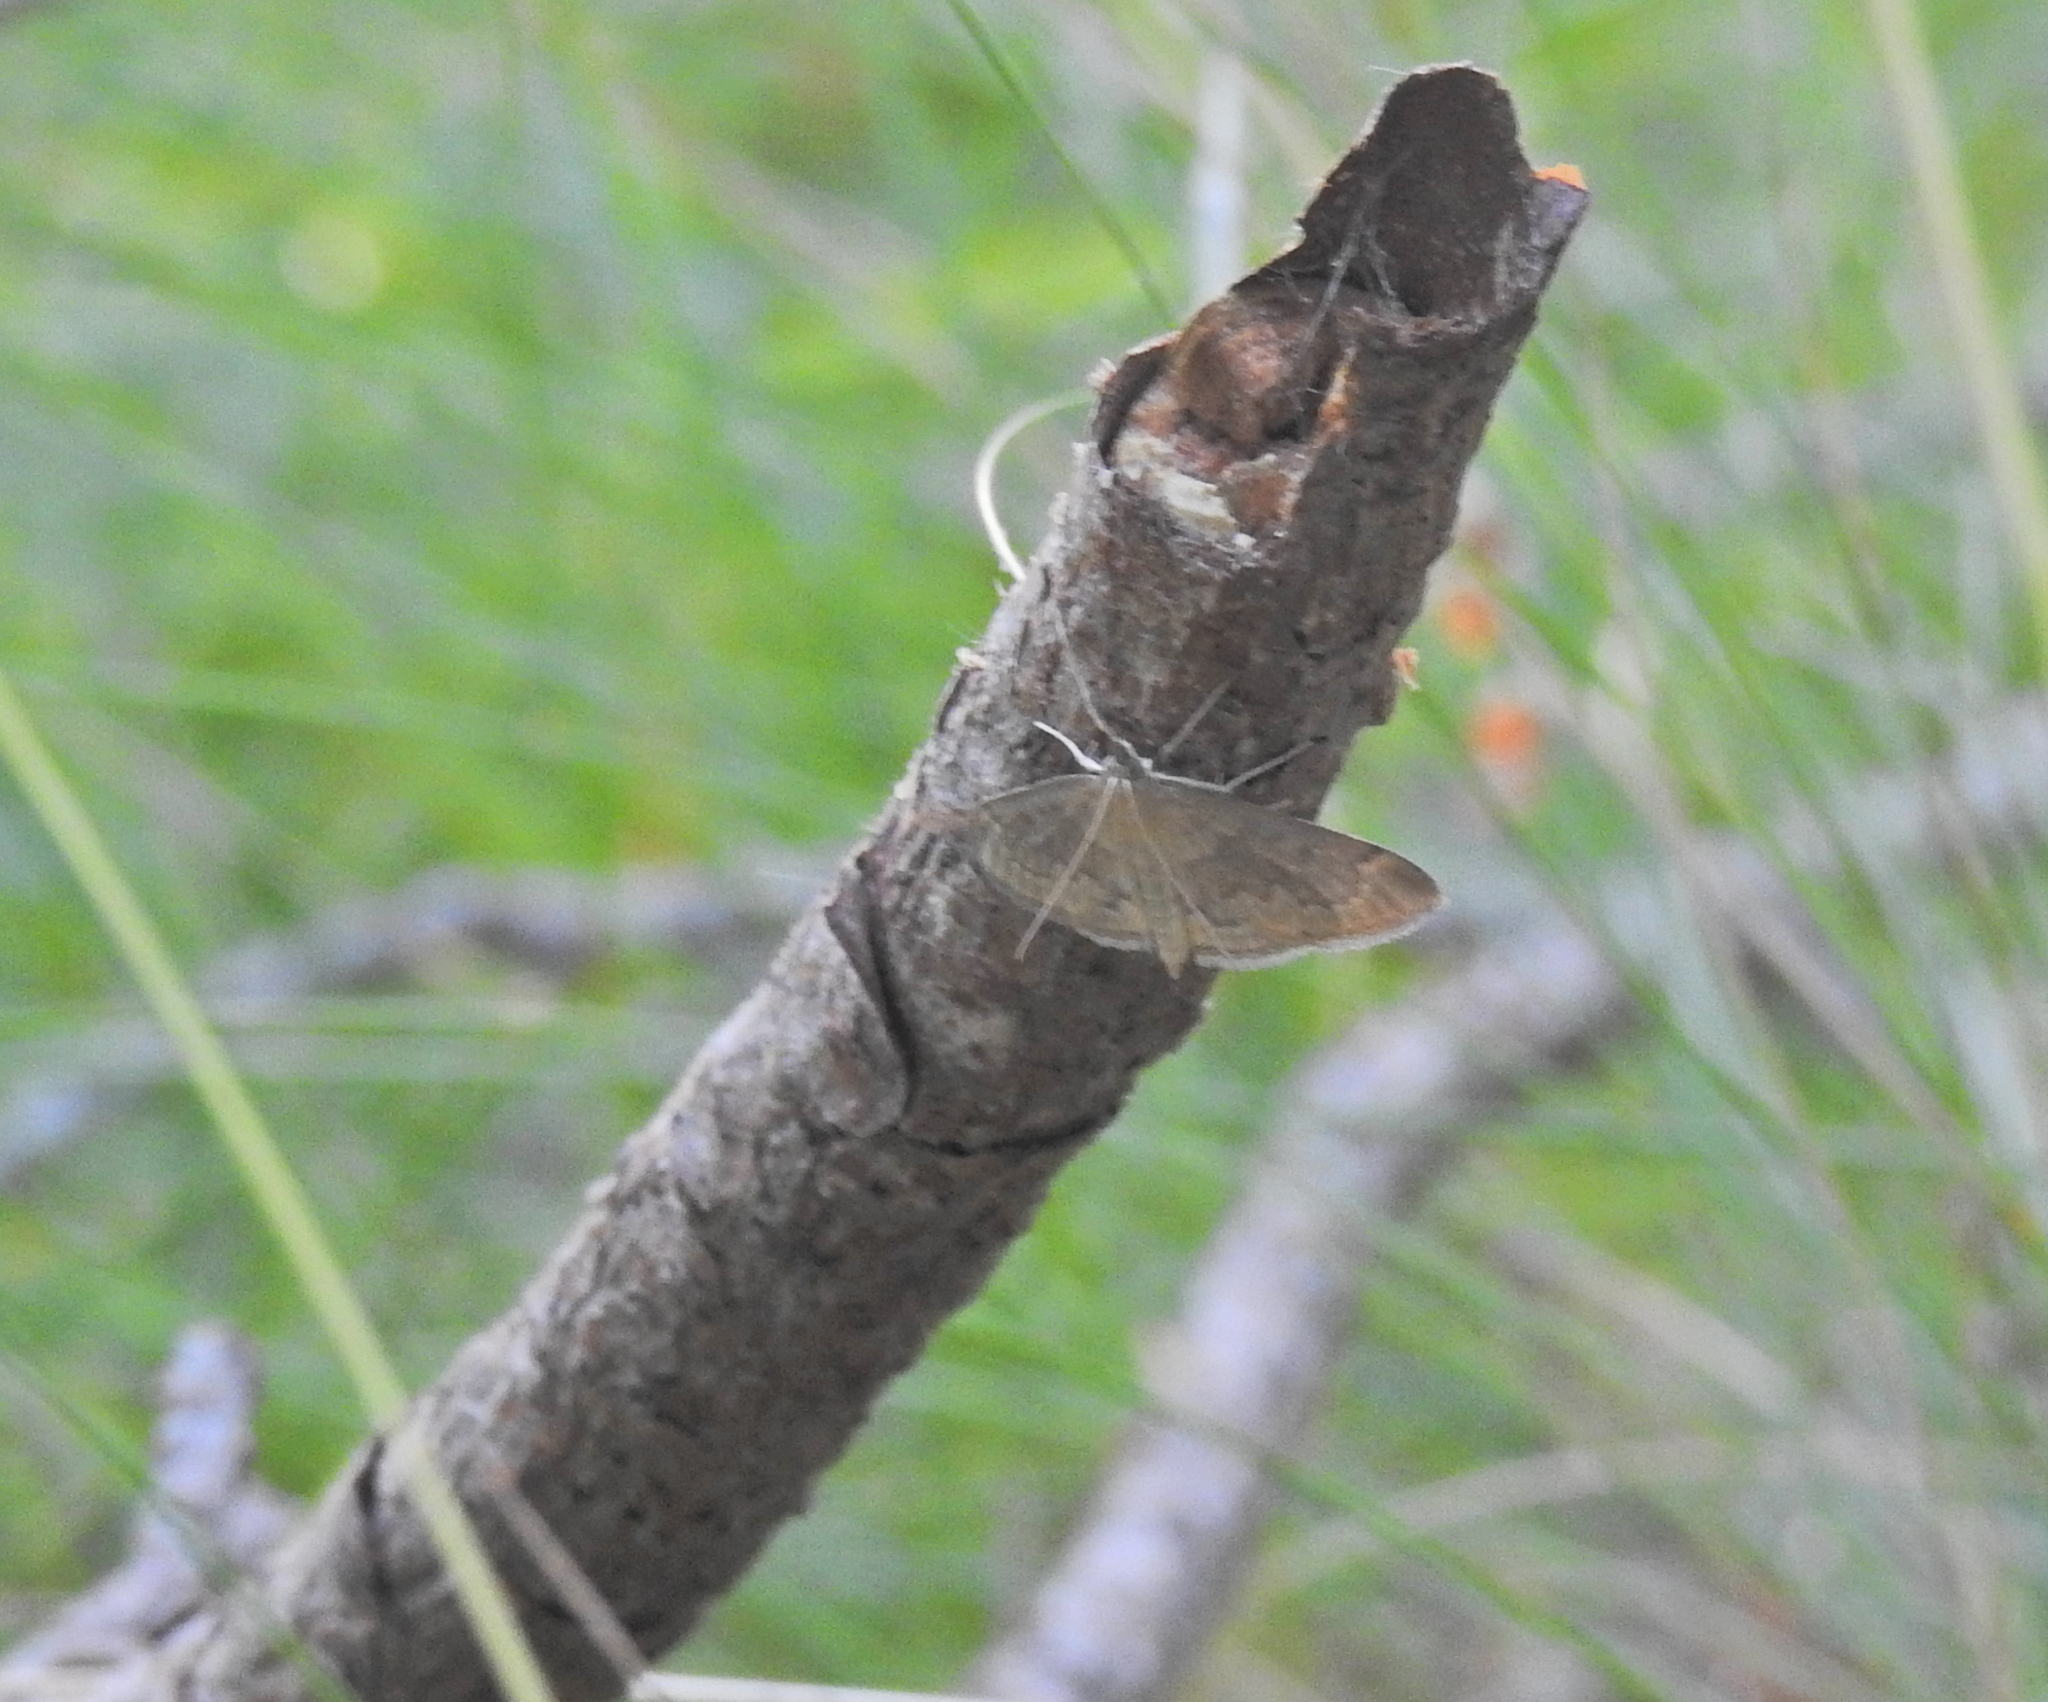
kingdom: Animalia
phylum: Arthropoda
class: Insecta
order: Lepidoptera
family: Crambidae
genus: Anania
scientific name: Anania fuscalis
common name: Cinerous pearl
